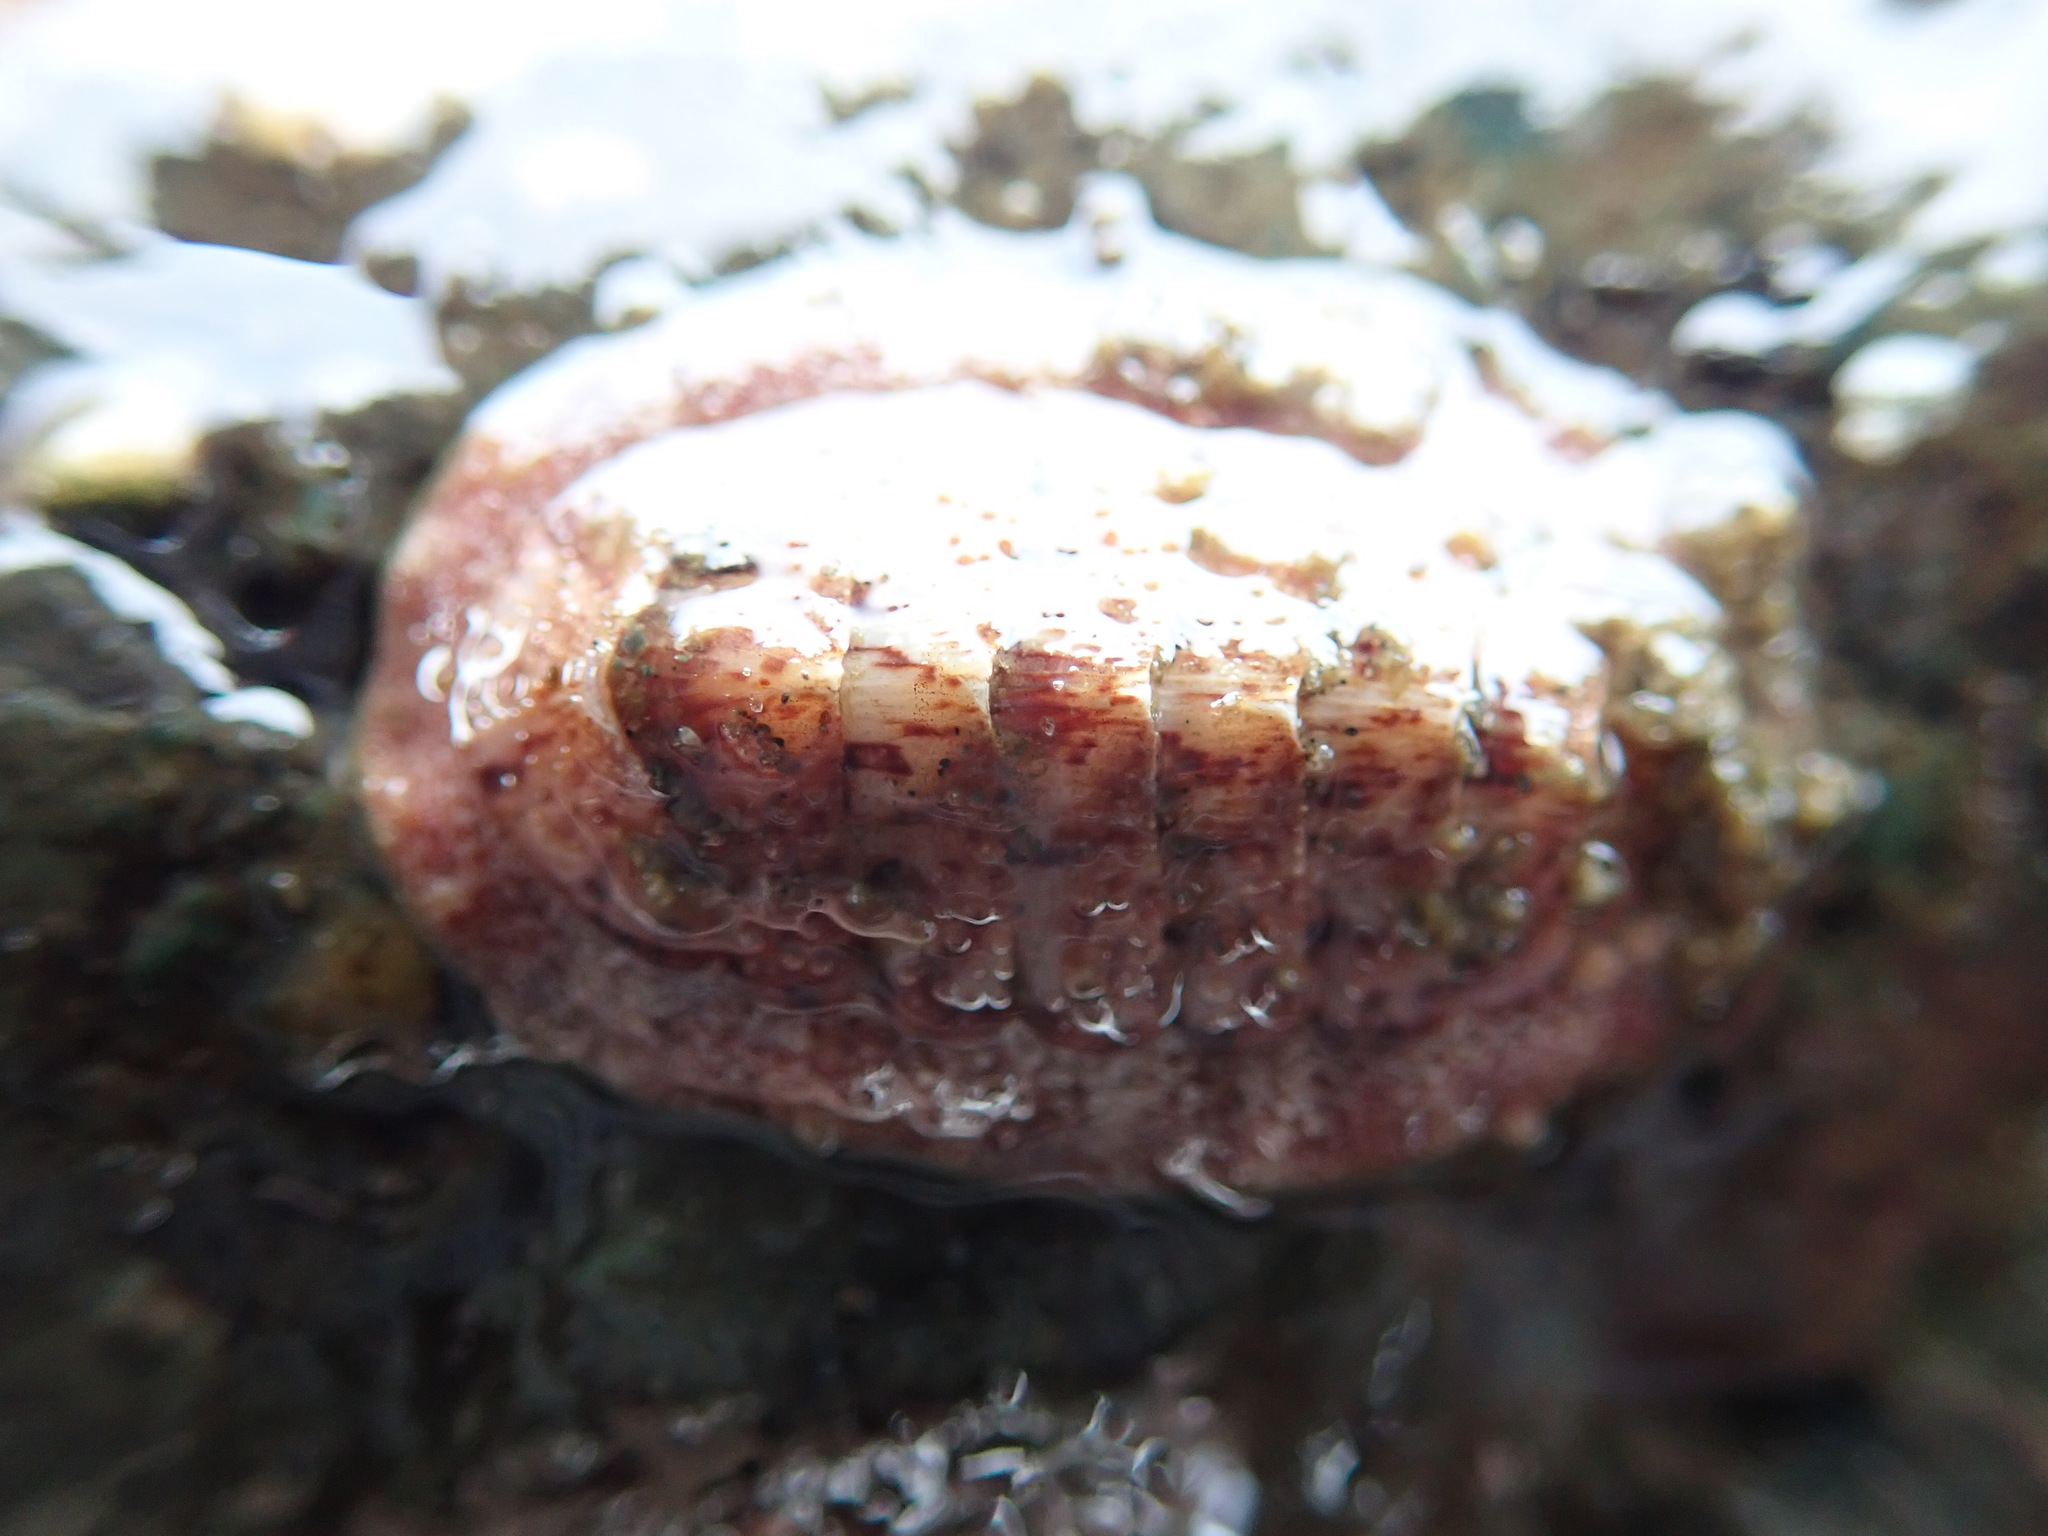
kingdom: Animalia
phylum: Mollusca
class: Polyplacophora
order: Chitonida
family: Ischnochitonidae
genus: Lepidozona
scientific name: Lepidozona mertensii
